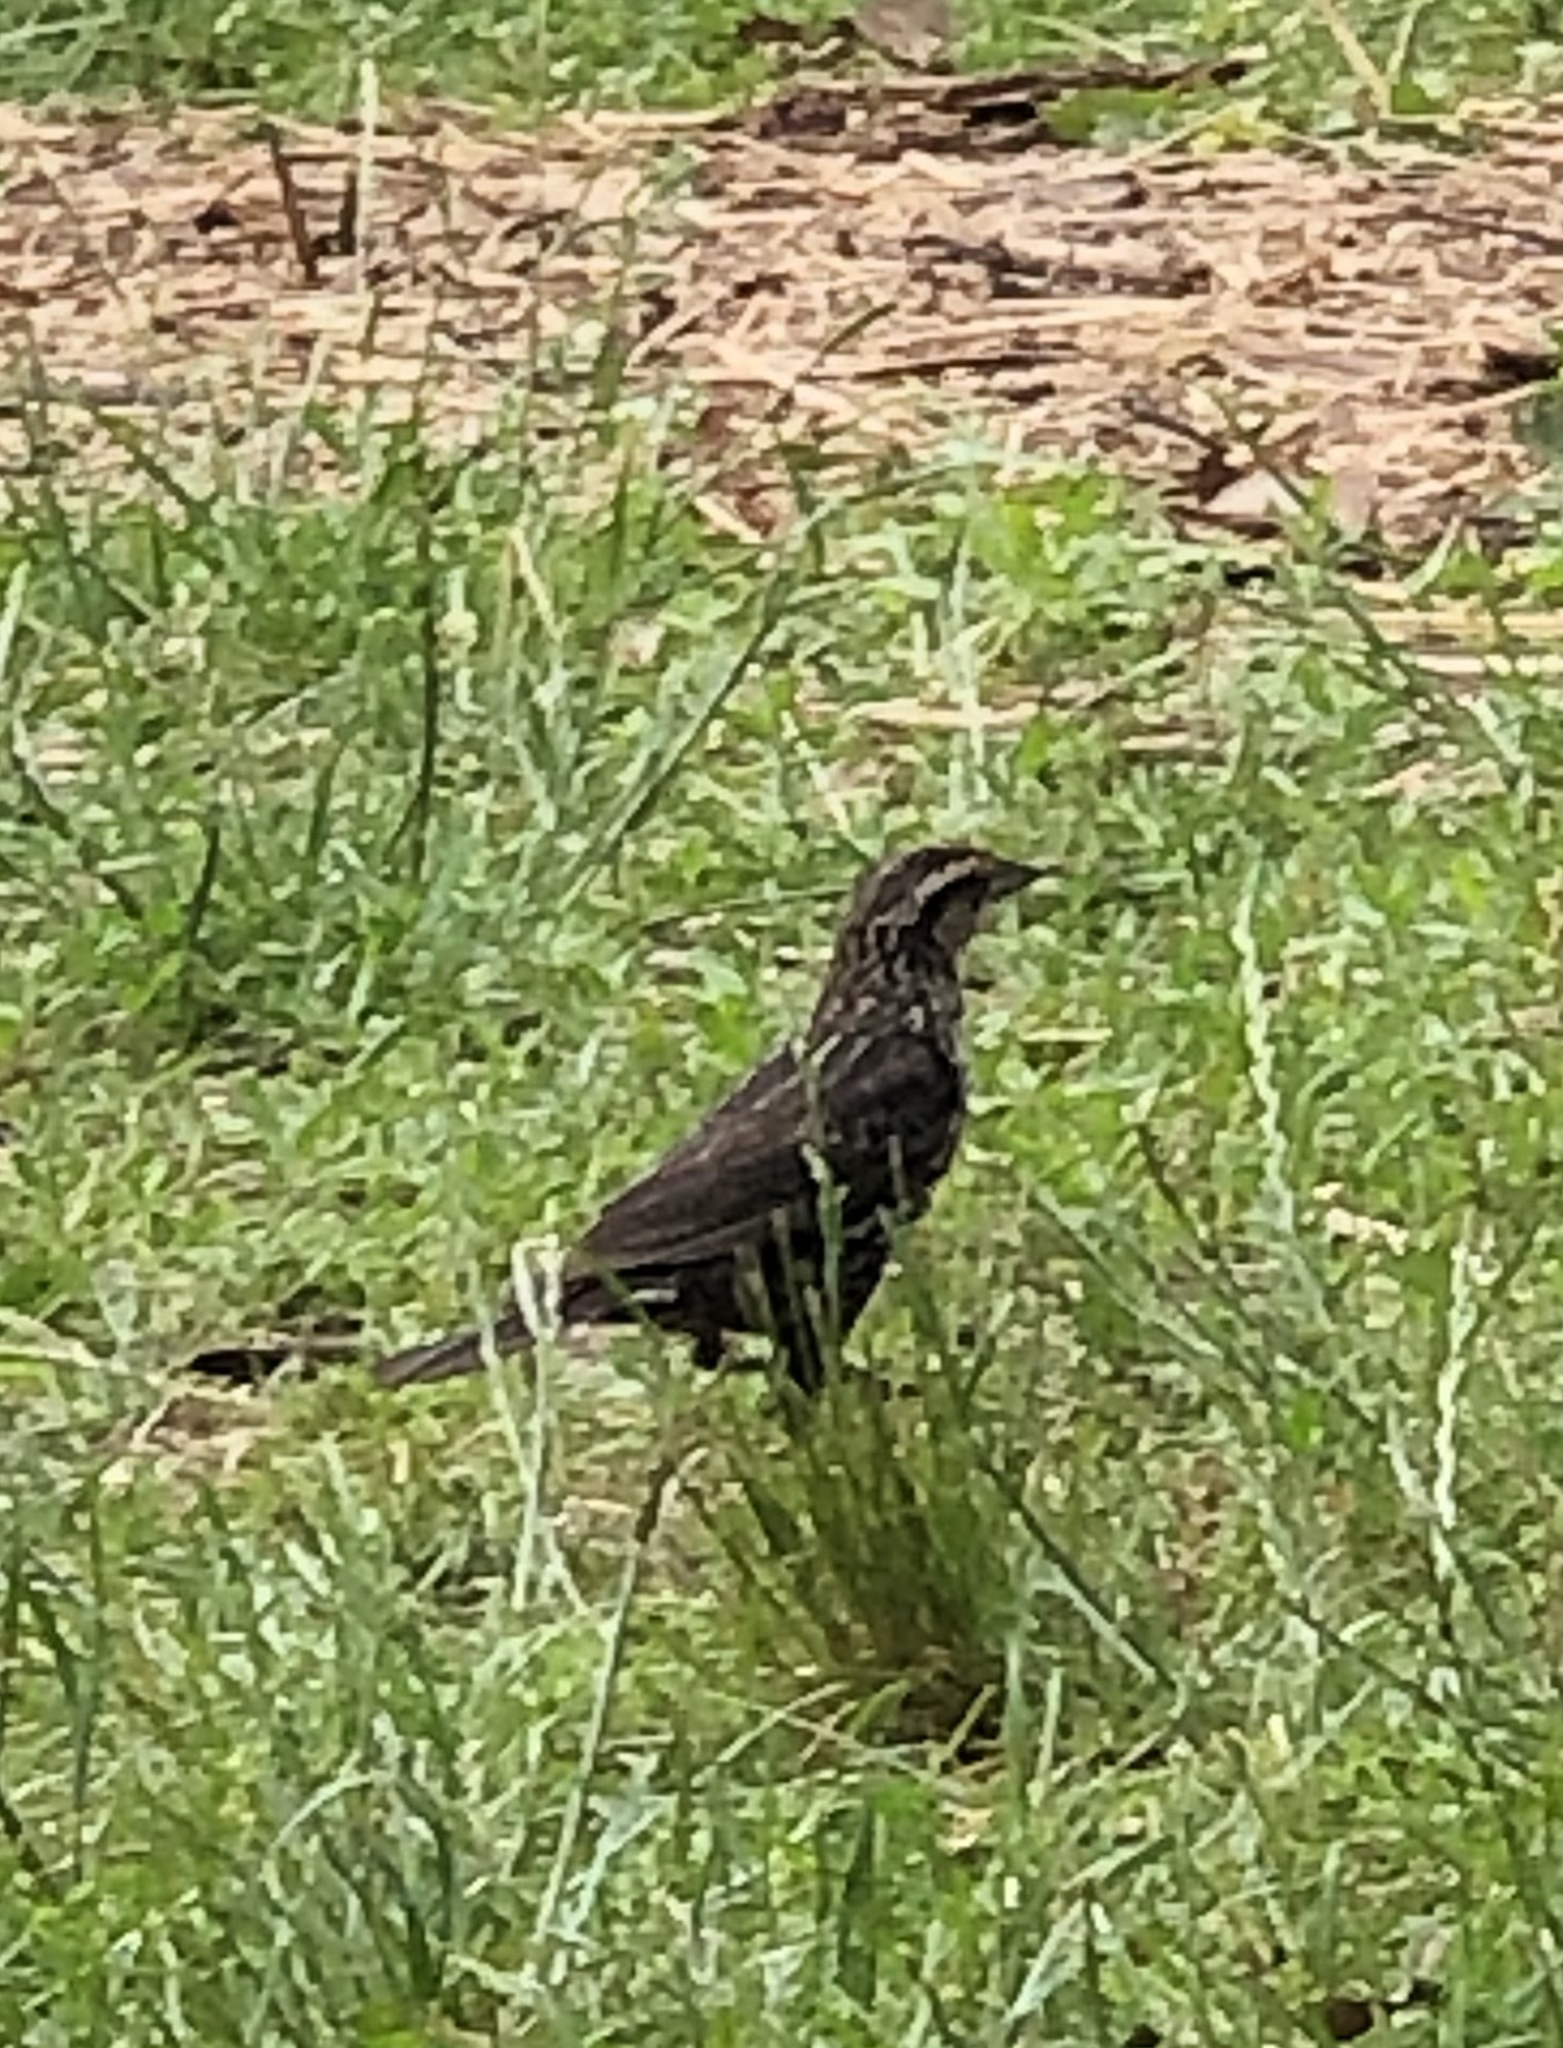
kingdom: Animalia
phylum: Chordata
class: Aves
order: Passeriformes
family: Icteridae
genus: Agelaius
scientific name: Agelaius phoeniceus
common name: Red-winged blackbird
